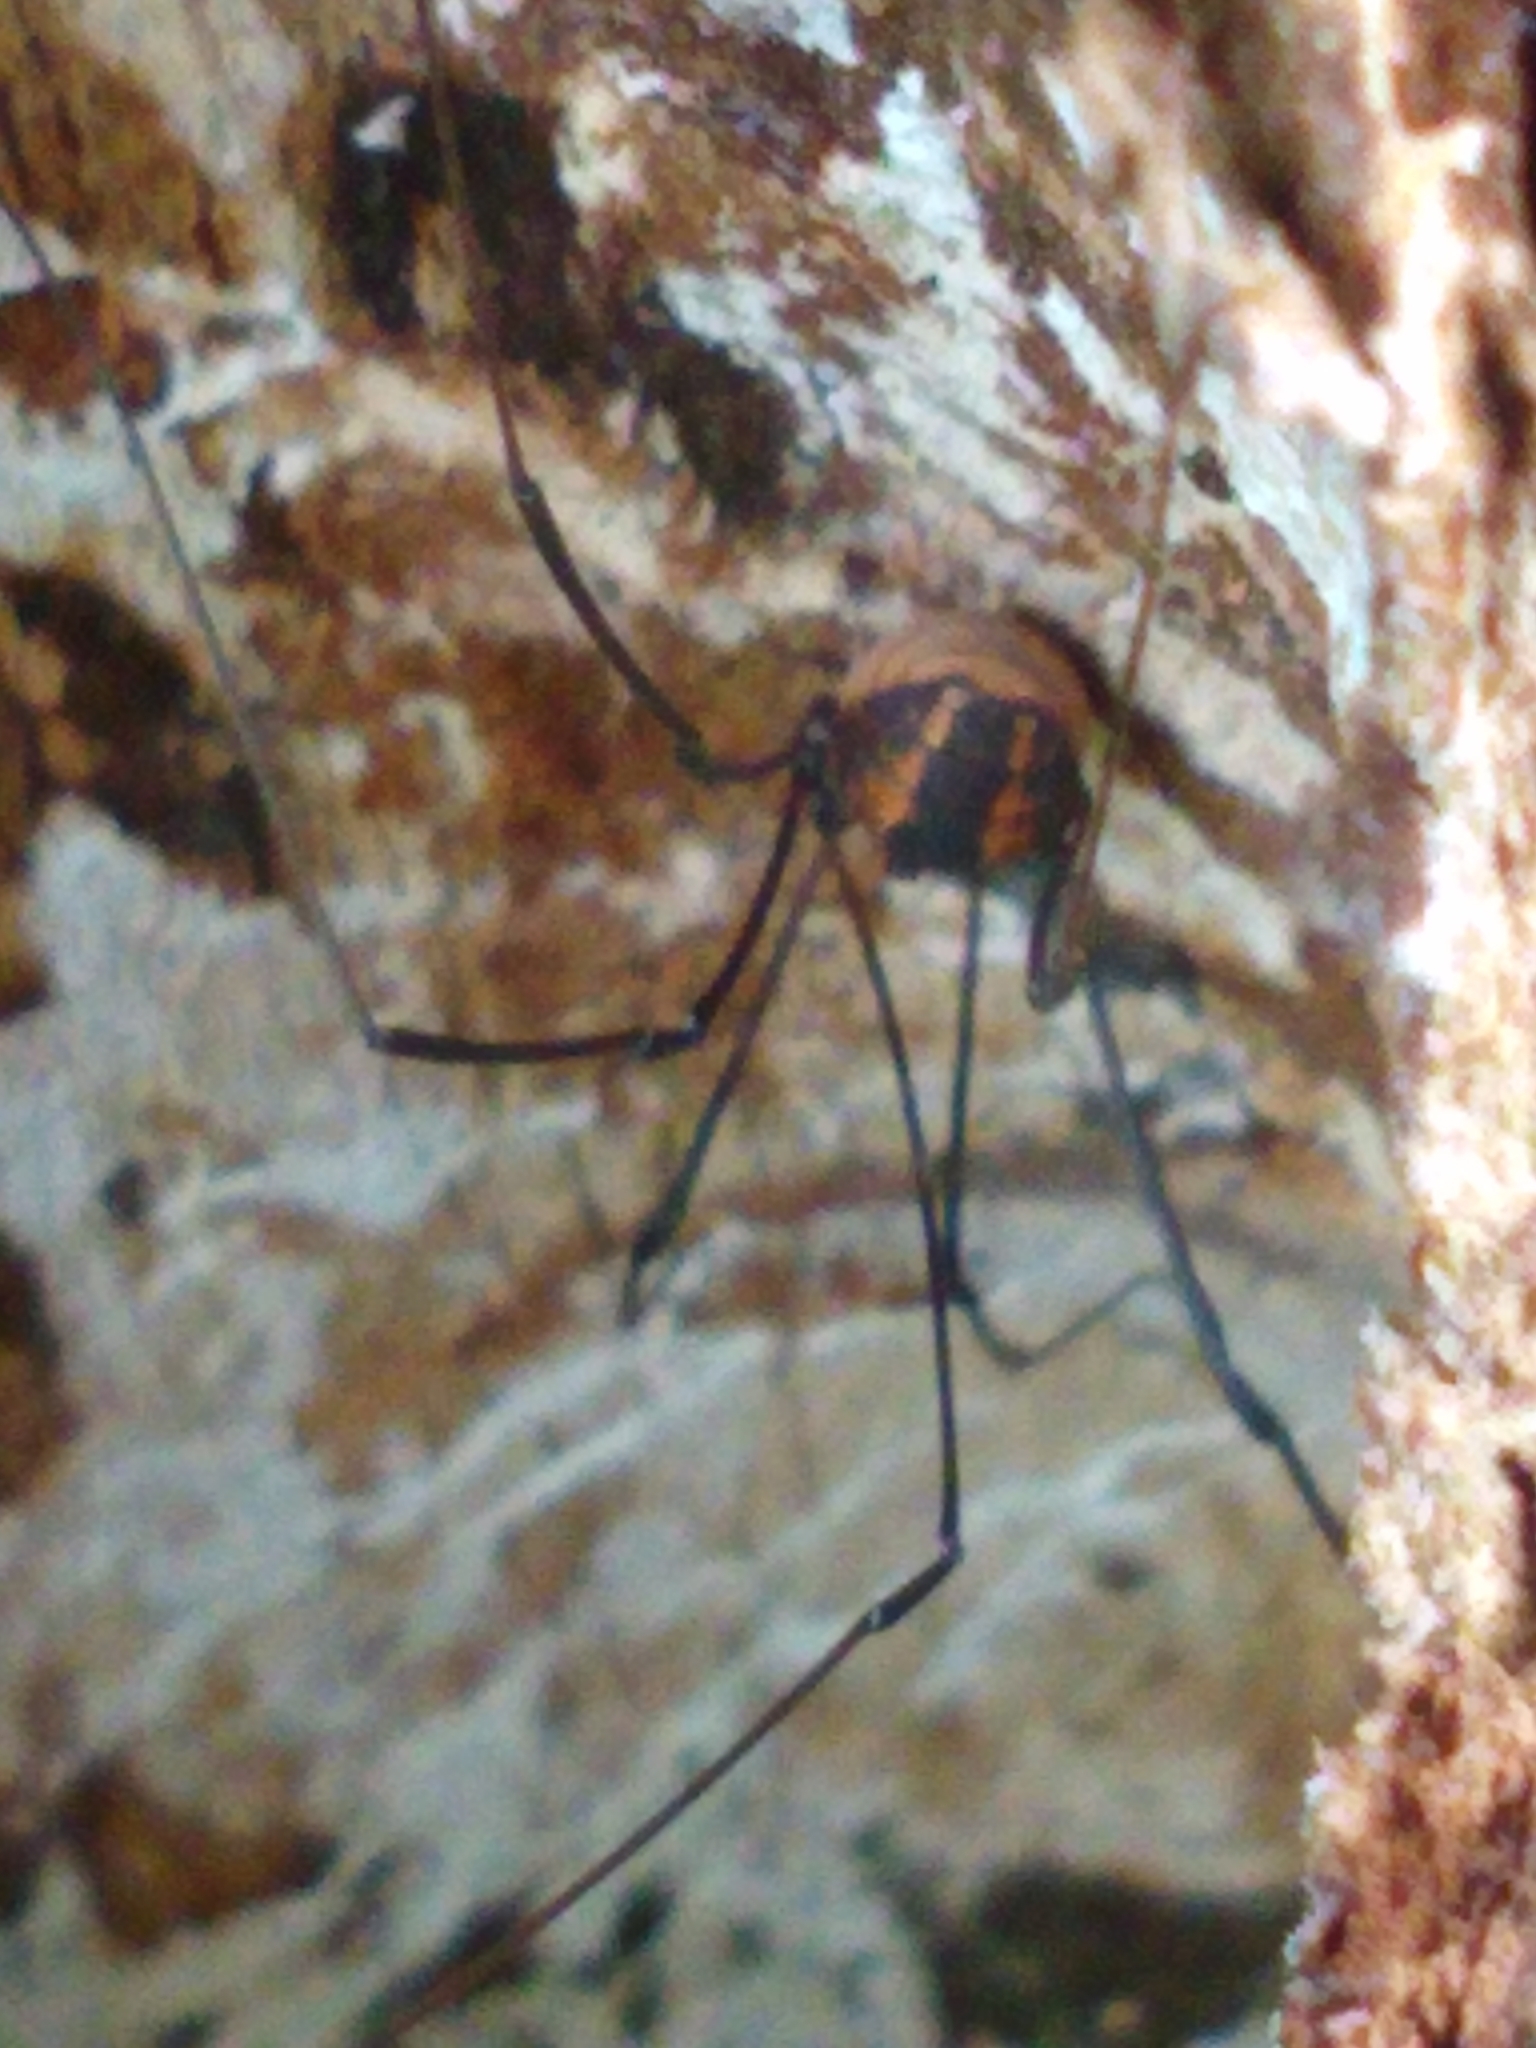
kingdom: Animalia
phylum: Arthropoda
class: Arachnida
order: Opiliones
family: Sclerosomatidae
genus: Leiobunum
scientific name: Leiobunum vittatum
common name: Eastern harvestman
